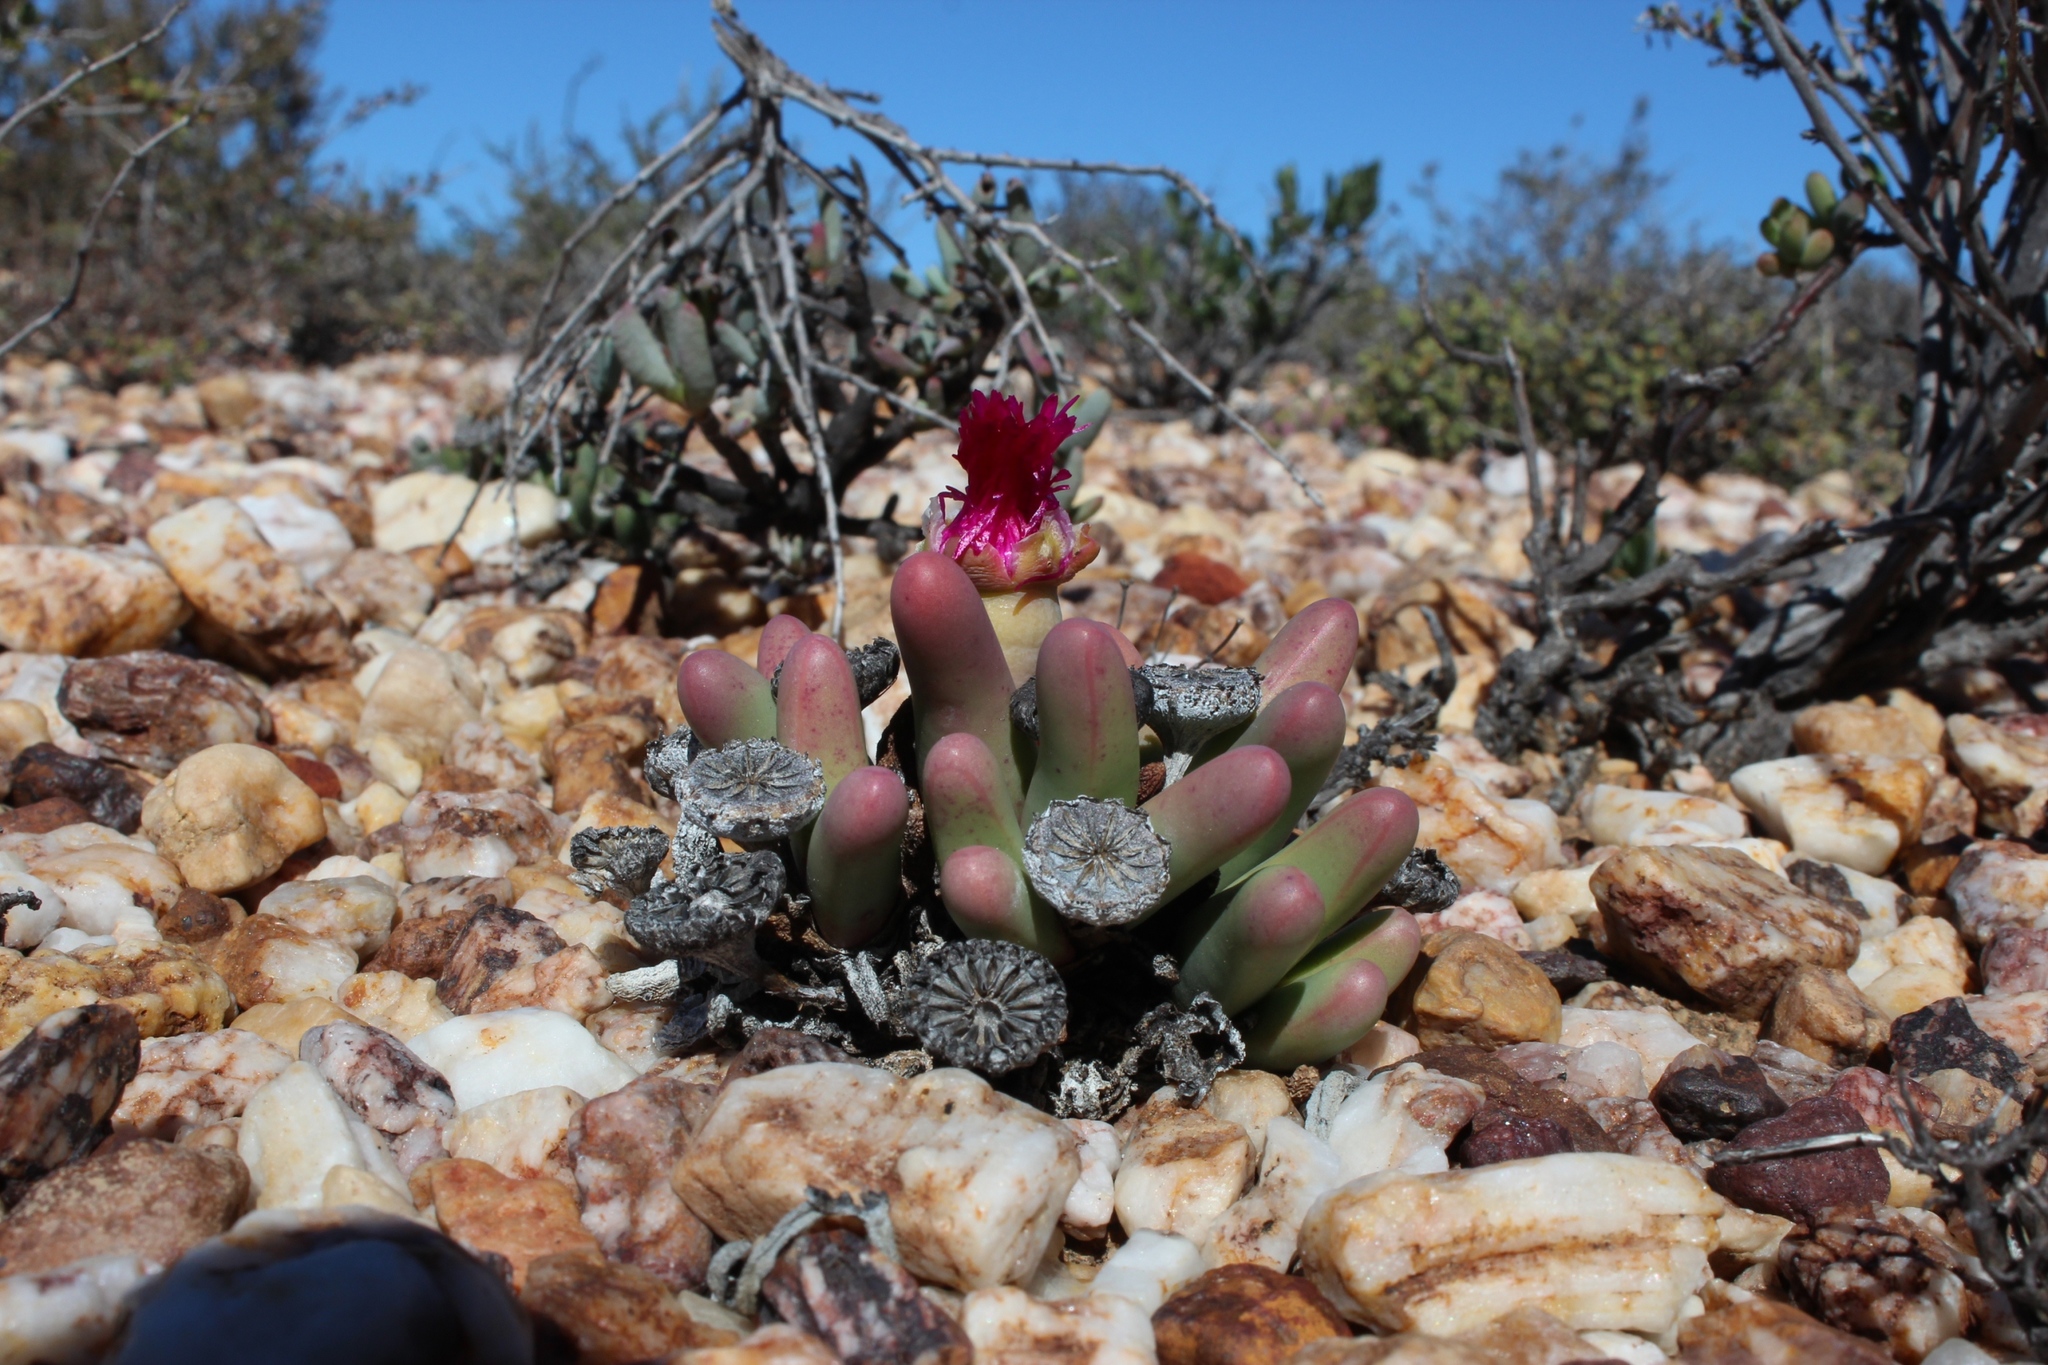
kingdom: Plantae
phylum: Tracheophyta
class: Magnoliopsida
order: Caryophyllales
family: Aizoaceae
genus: Argyroderma
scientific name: Argyroderma fissum
